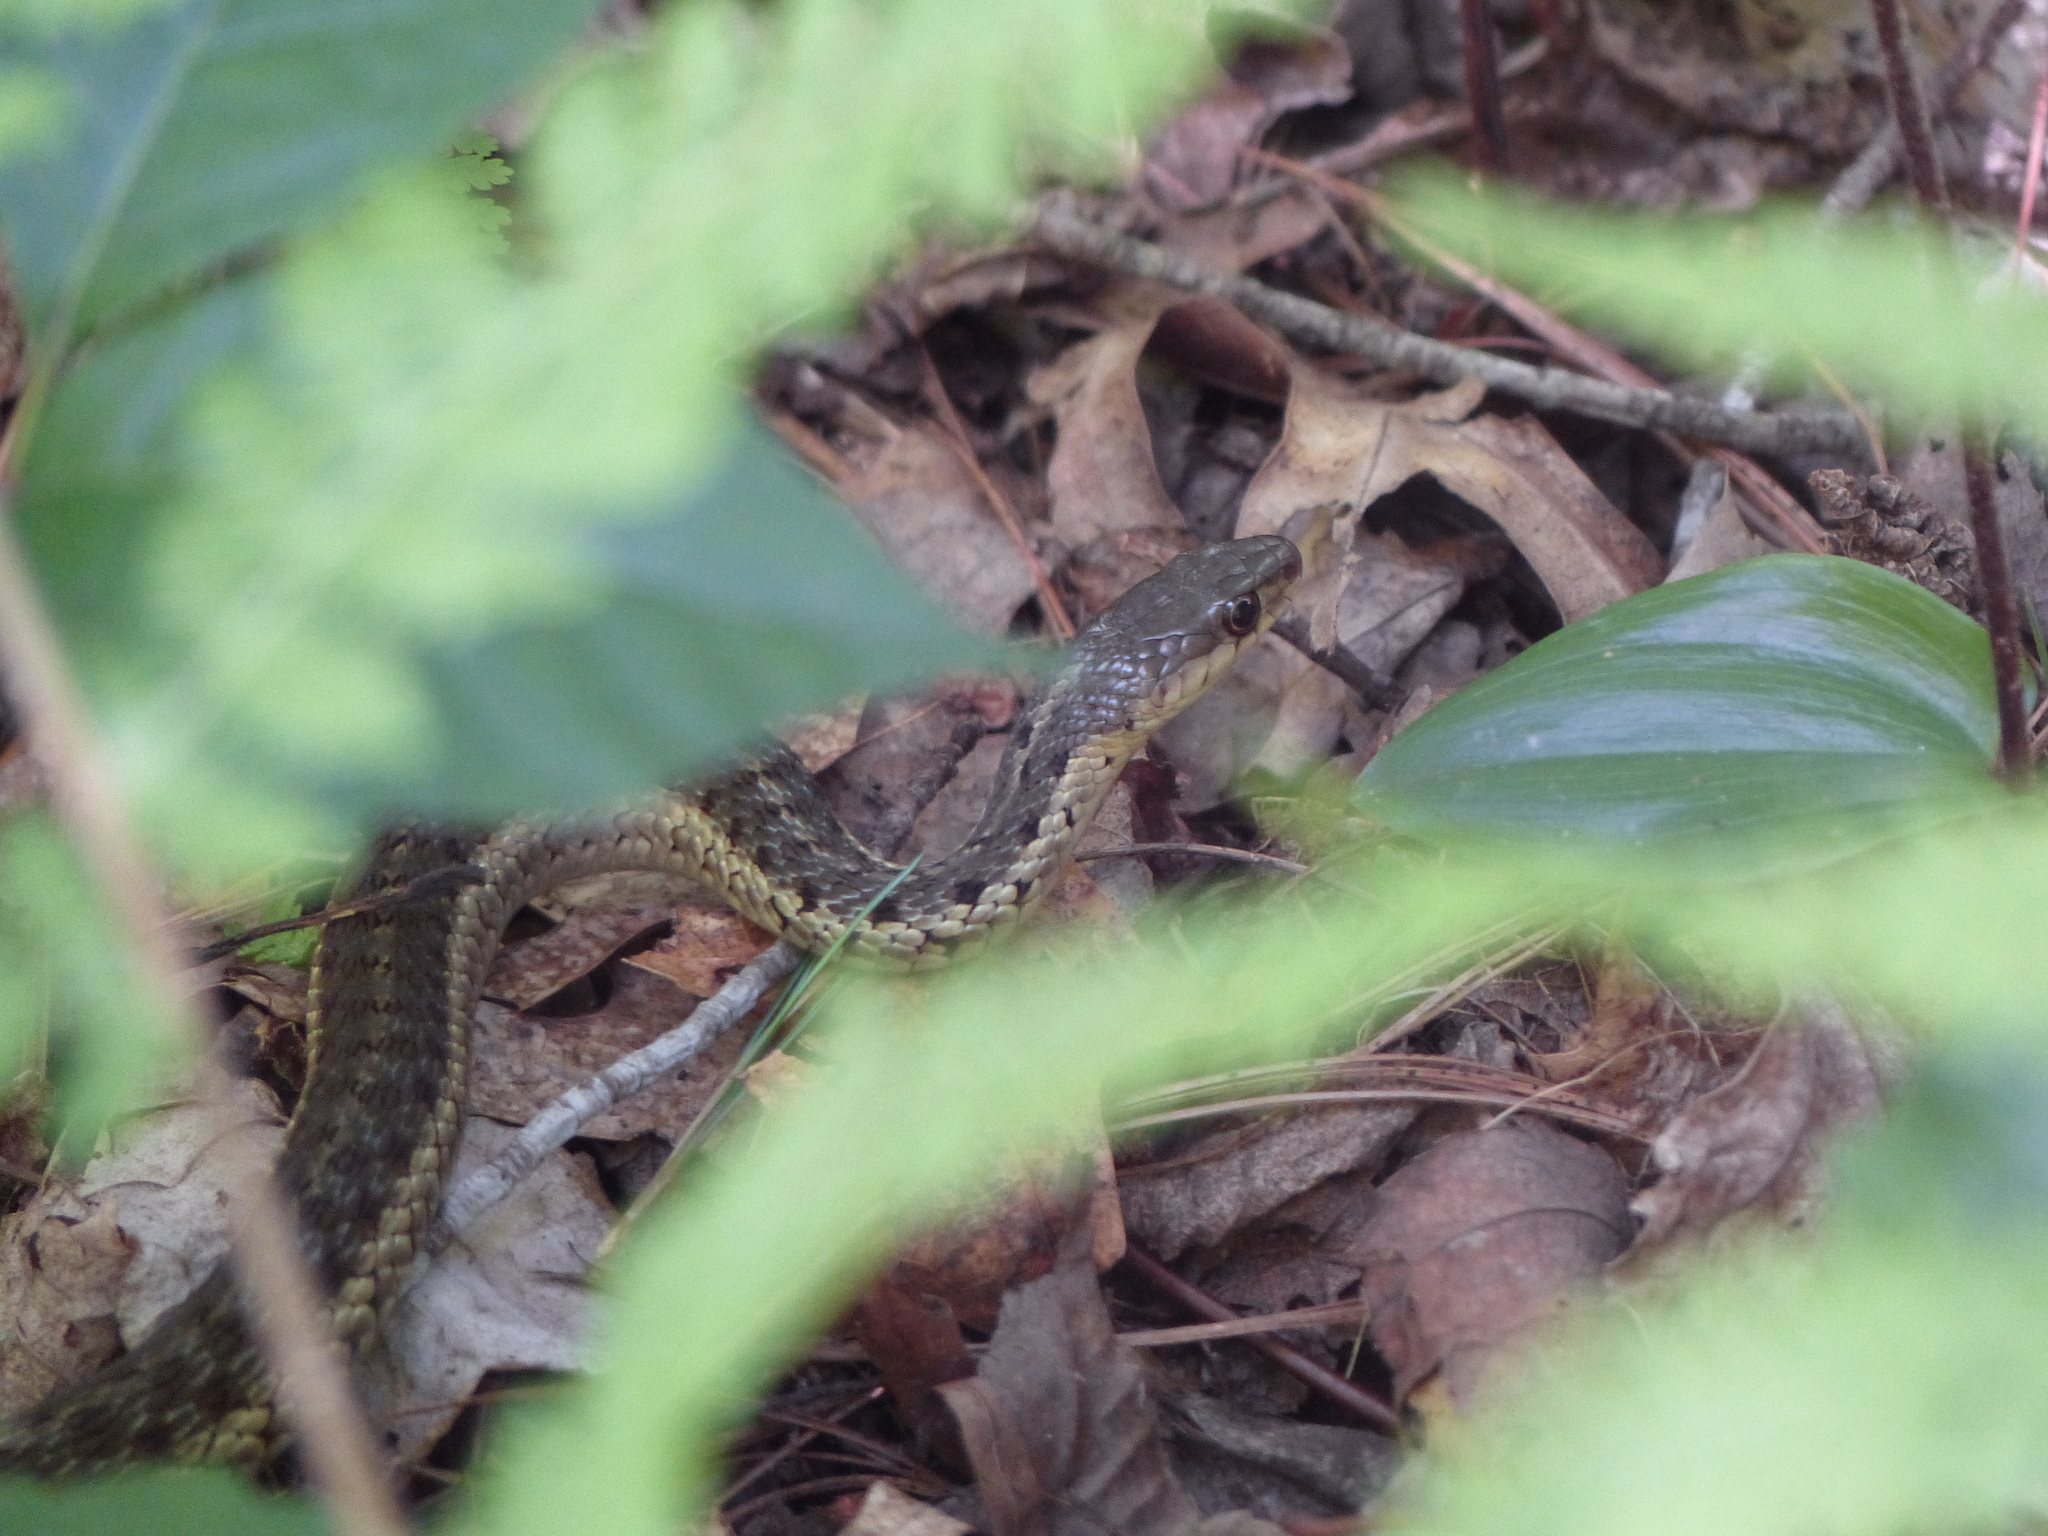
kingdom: Animalia
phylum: Chordata
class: Squamata
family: Colubridae
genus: Thamnophis
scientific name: Thamnophis sirtalis
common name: Common garter snake
